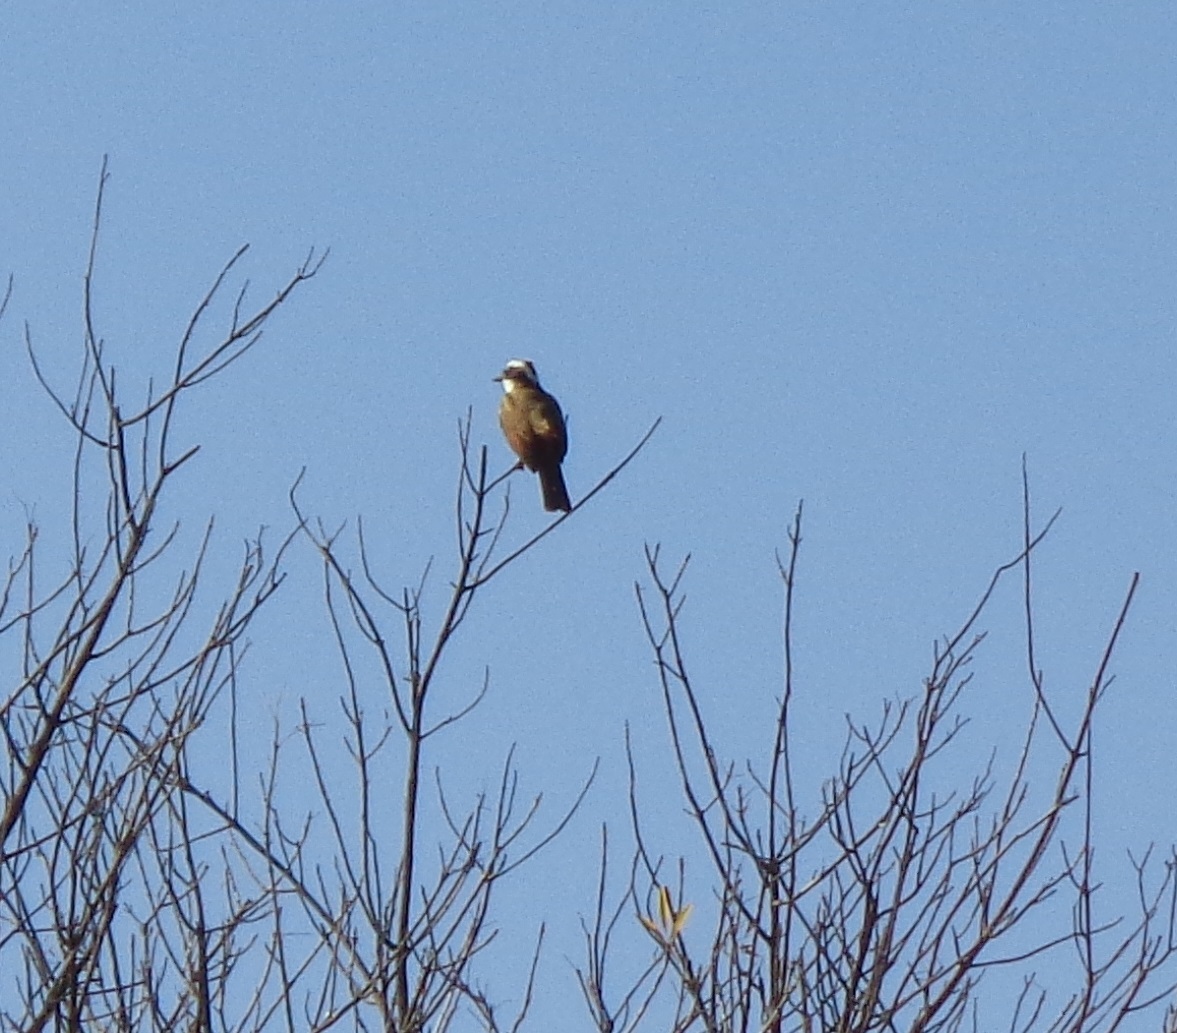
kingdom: Animalia
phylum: Chordata
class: Aves
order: Passeriformes
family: Tyrannidae
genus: Pitangus
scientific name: Pitangus sulphuratus
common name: Great kiskadee
